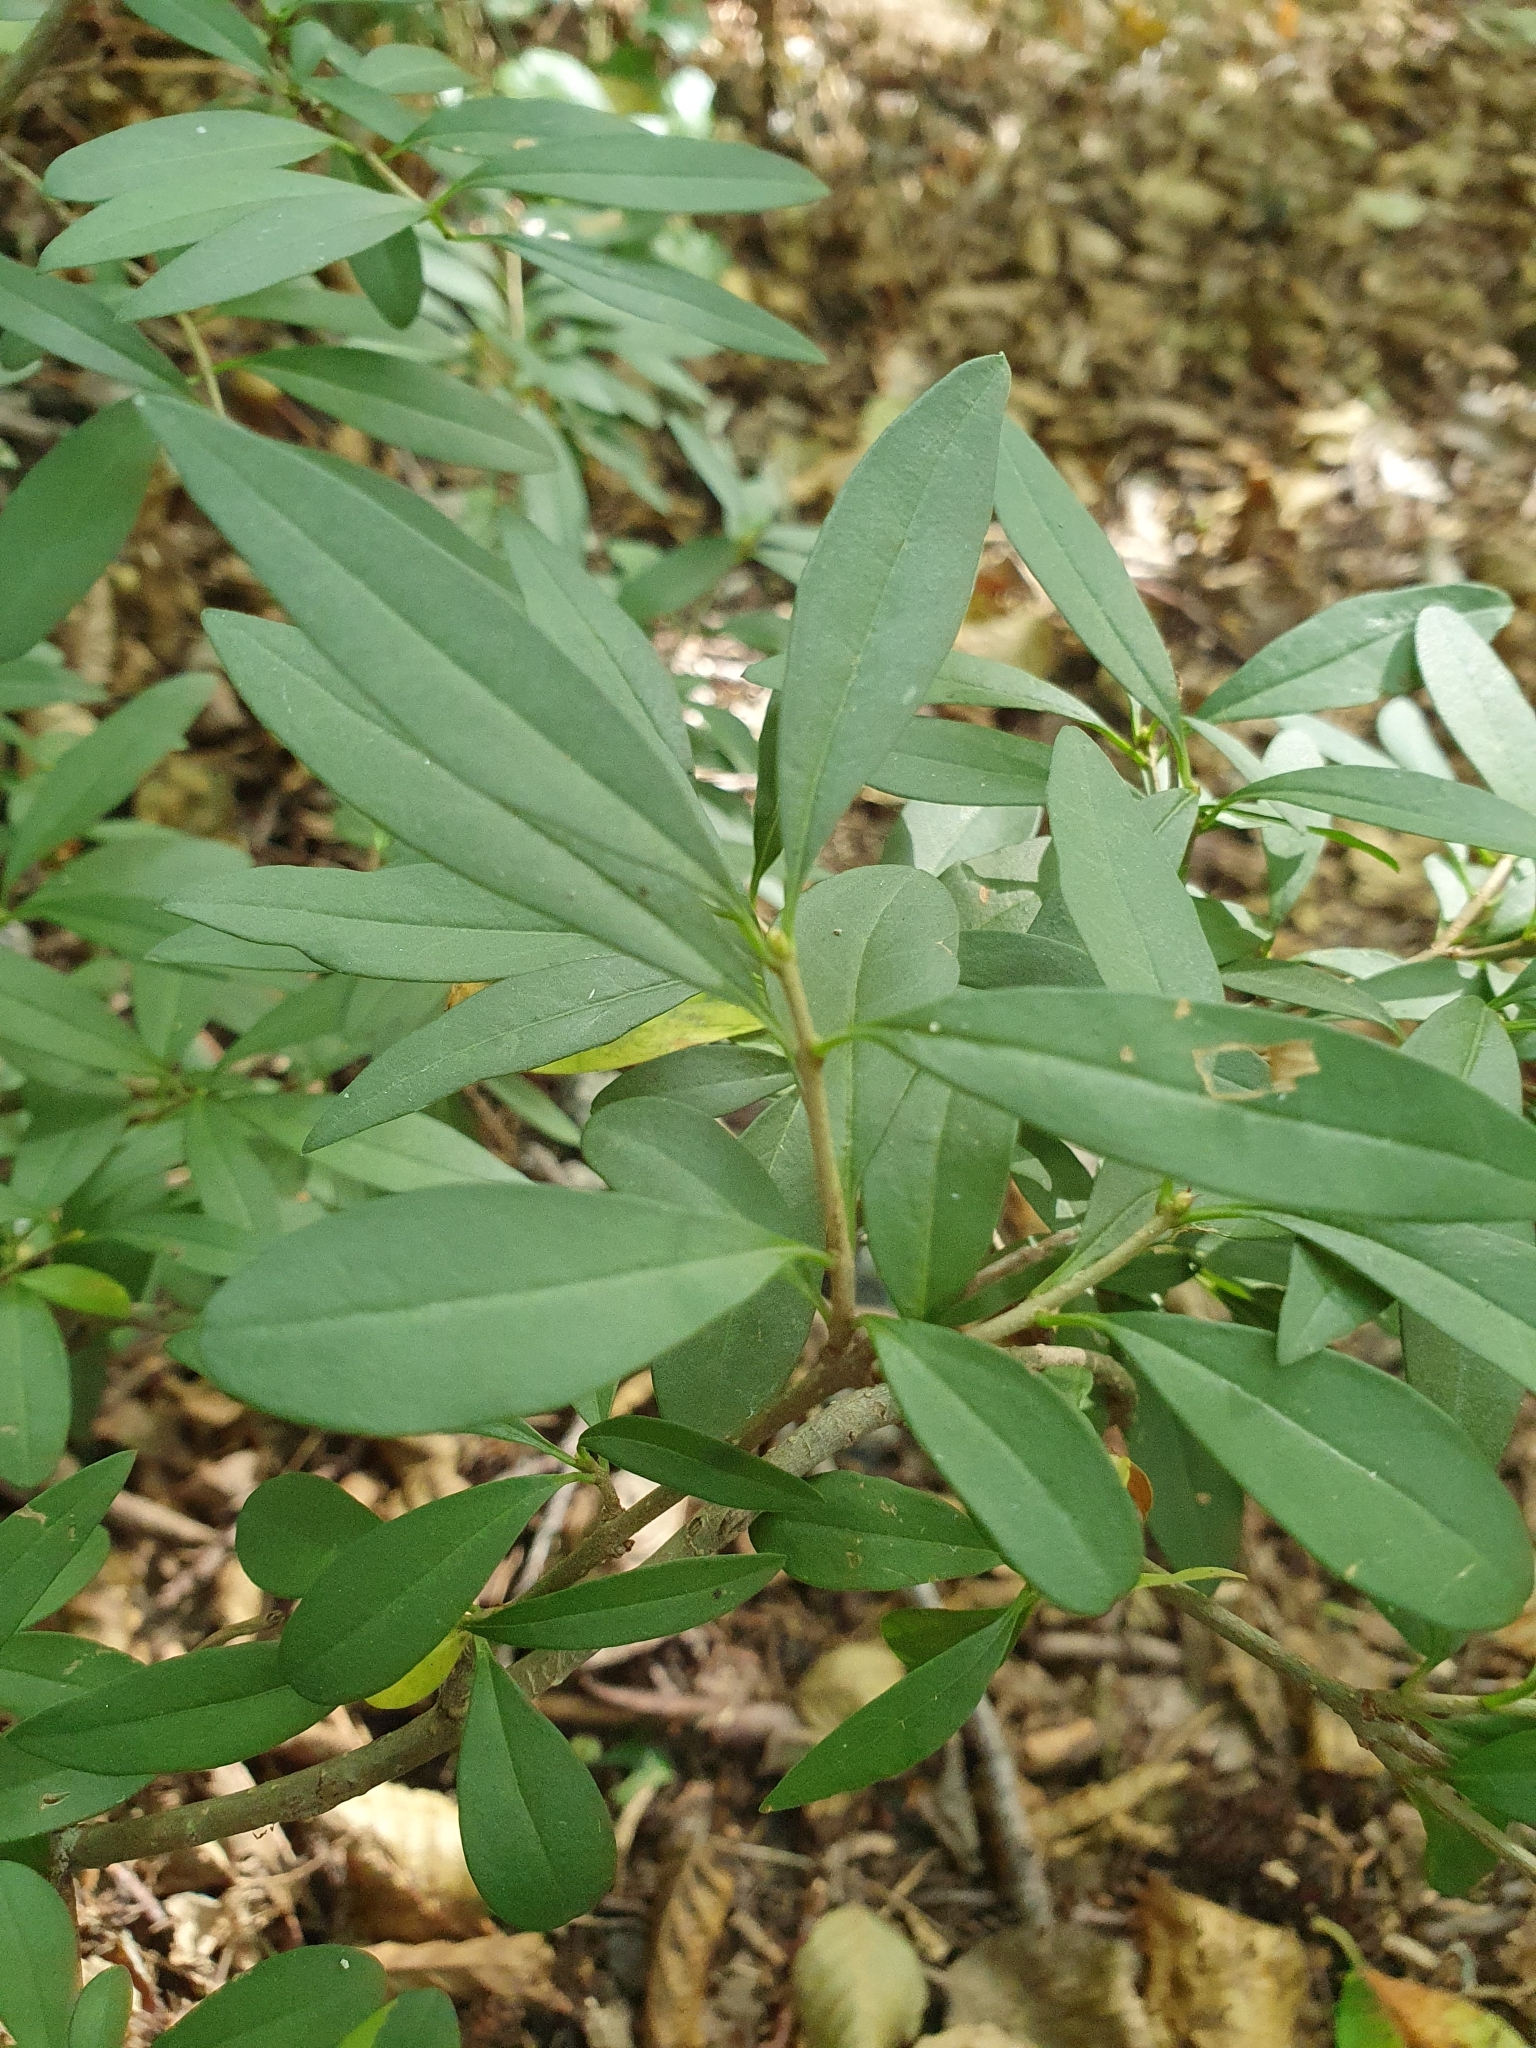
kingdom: Plantae
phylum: Tracheophyta
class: Magnoliopsida
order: Lamiales
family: Oleaceae
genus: Ligustrum
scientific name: Ligustrum vulgare
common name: Wild privet
